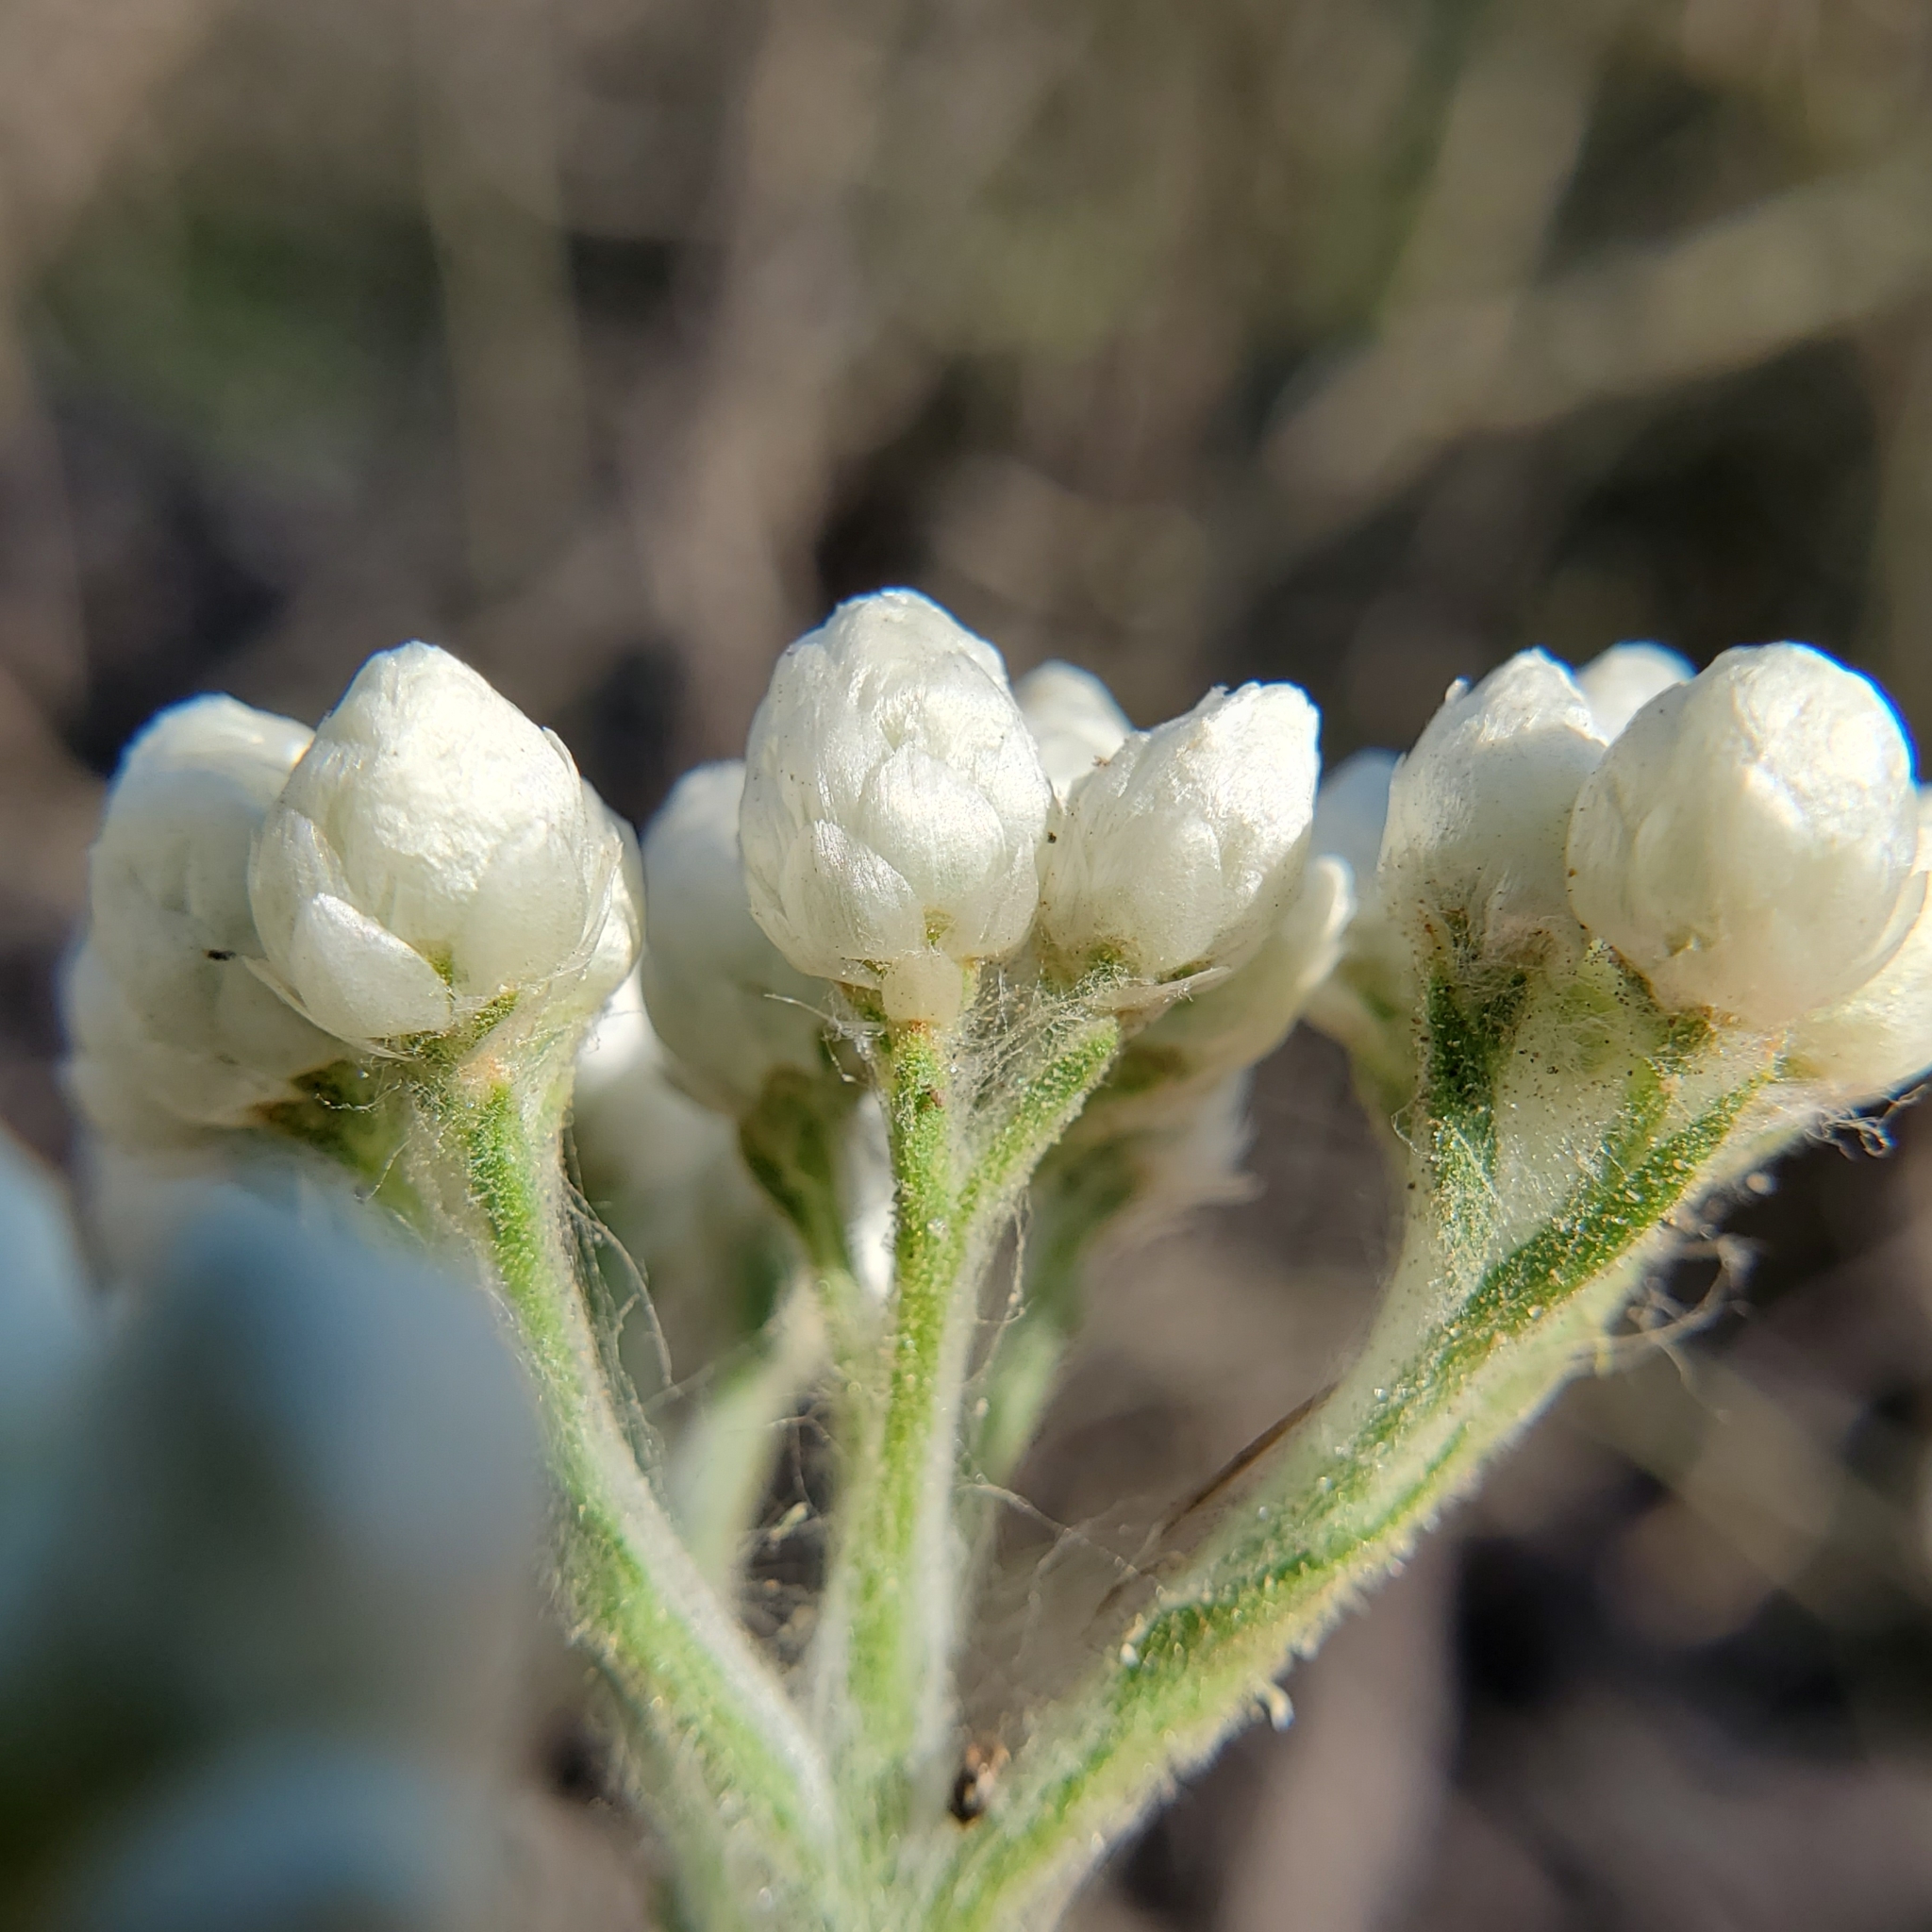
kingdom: Plantae
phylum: Tracheophyta
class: Magnoliopsida
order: Asterales
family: Asteraceae
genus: Pseudognaphalium
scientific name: Pseudognaphalium californicum
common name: California rabbit-tobacco
